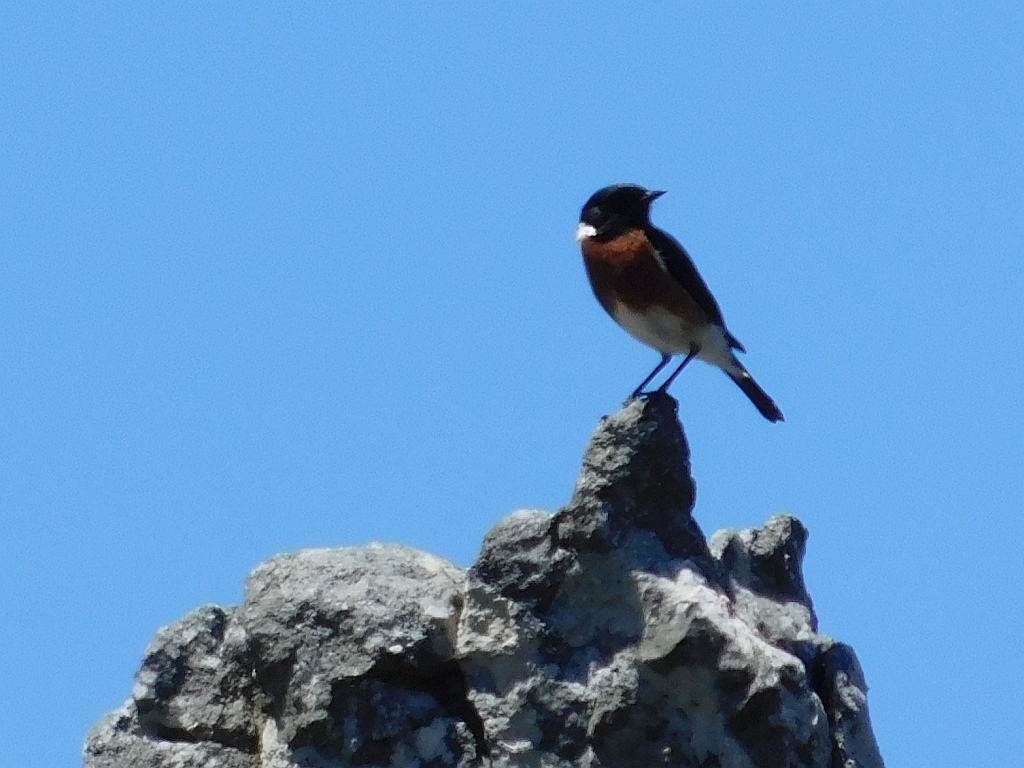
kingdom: Animalia
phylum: Chordata
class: Aves
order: Passeriformes
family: Muscicapidae
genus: Saxicola
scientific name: Saxicola torquatus
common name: African stonechat
